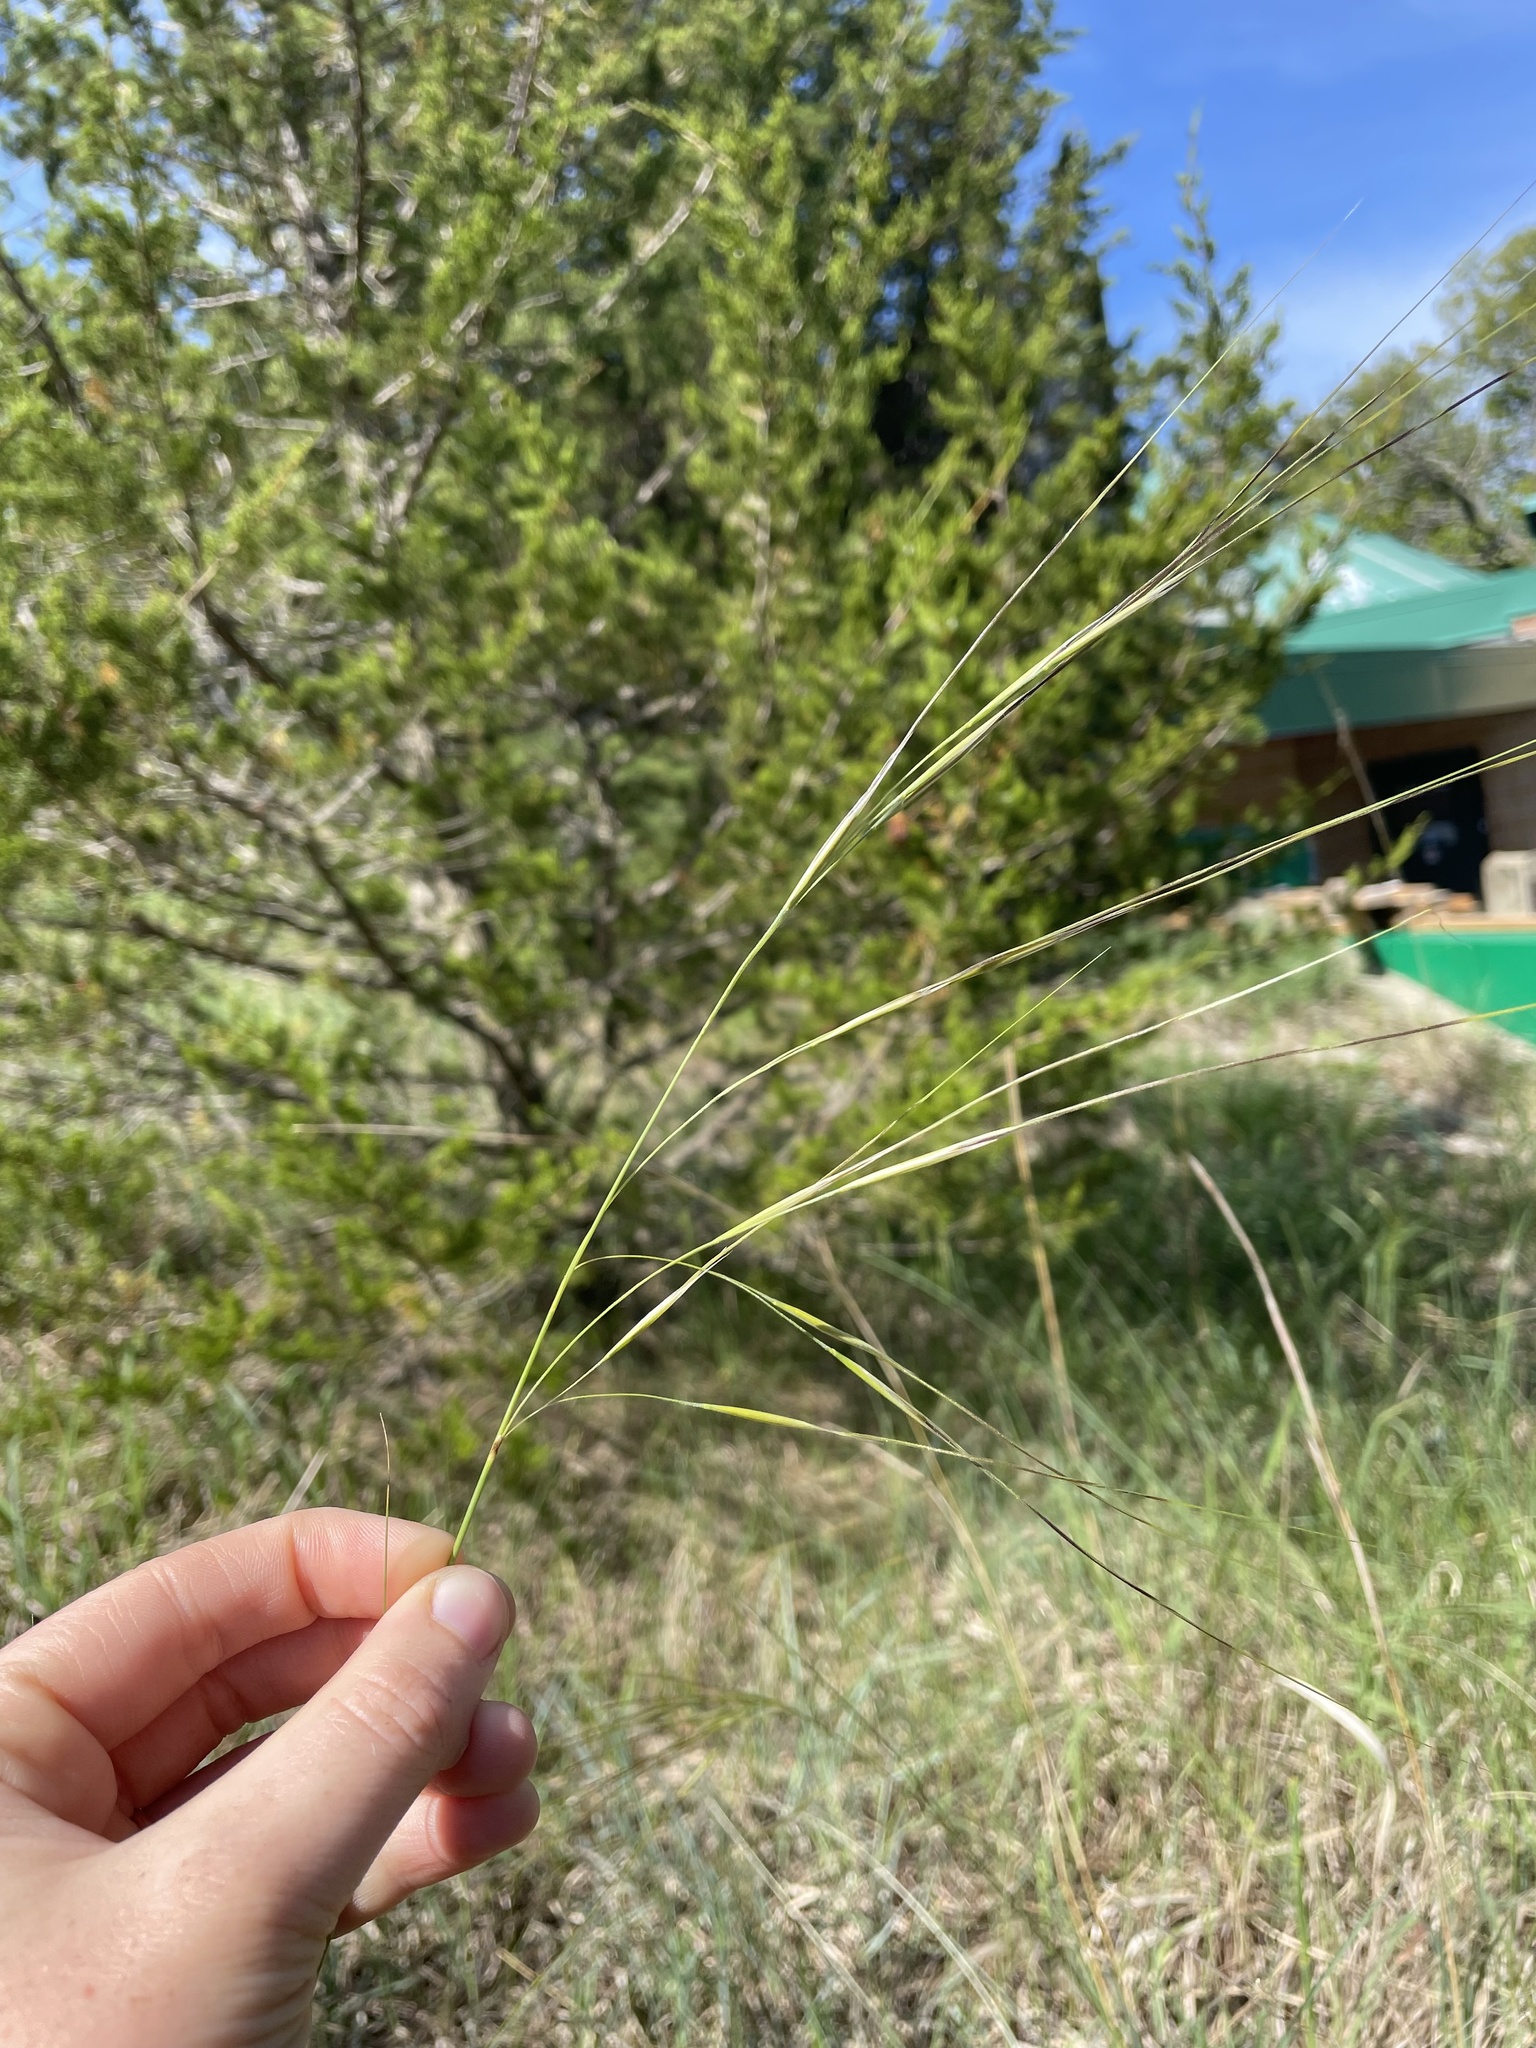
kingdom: Plantae
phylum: Tracheophyta
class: Liliopsida
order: Poales
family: Poaceae
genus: Hesperostipa
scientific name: Hesperostipa spartea
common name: Porcupine grass
